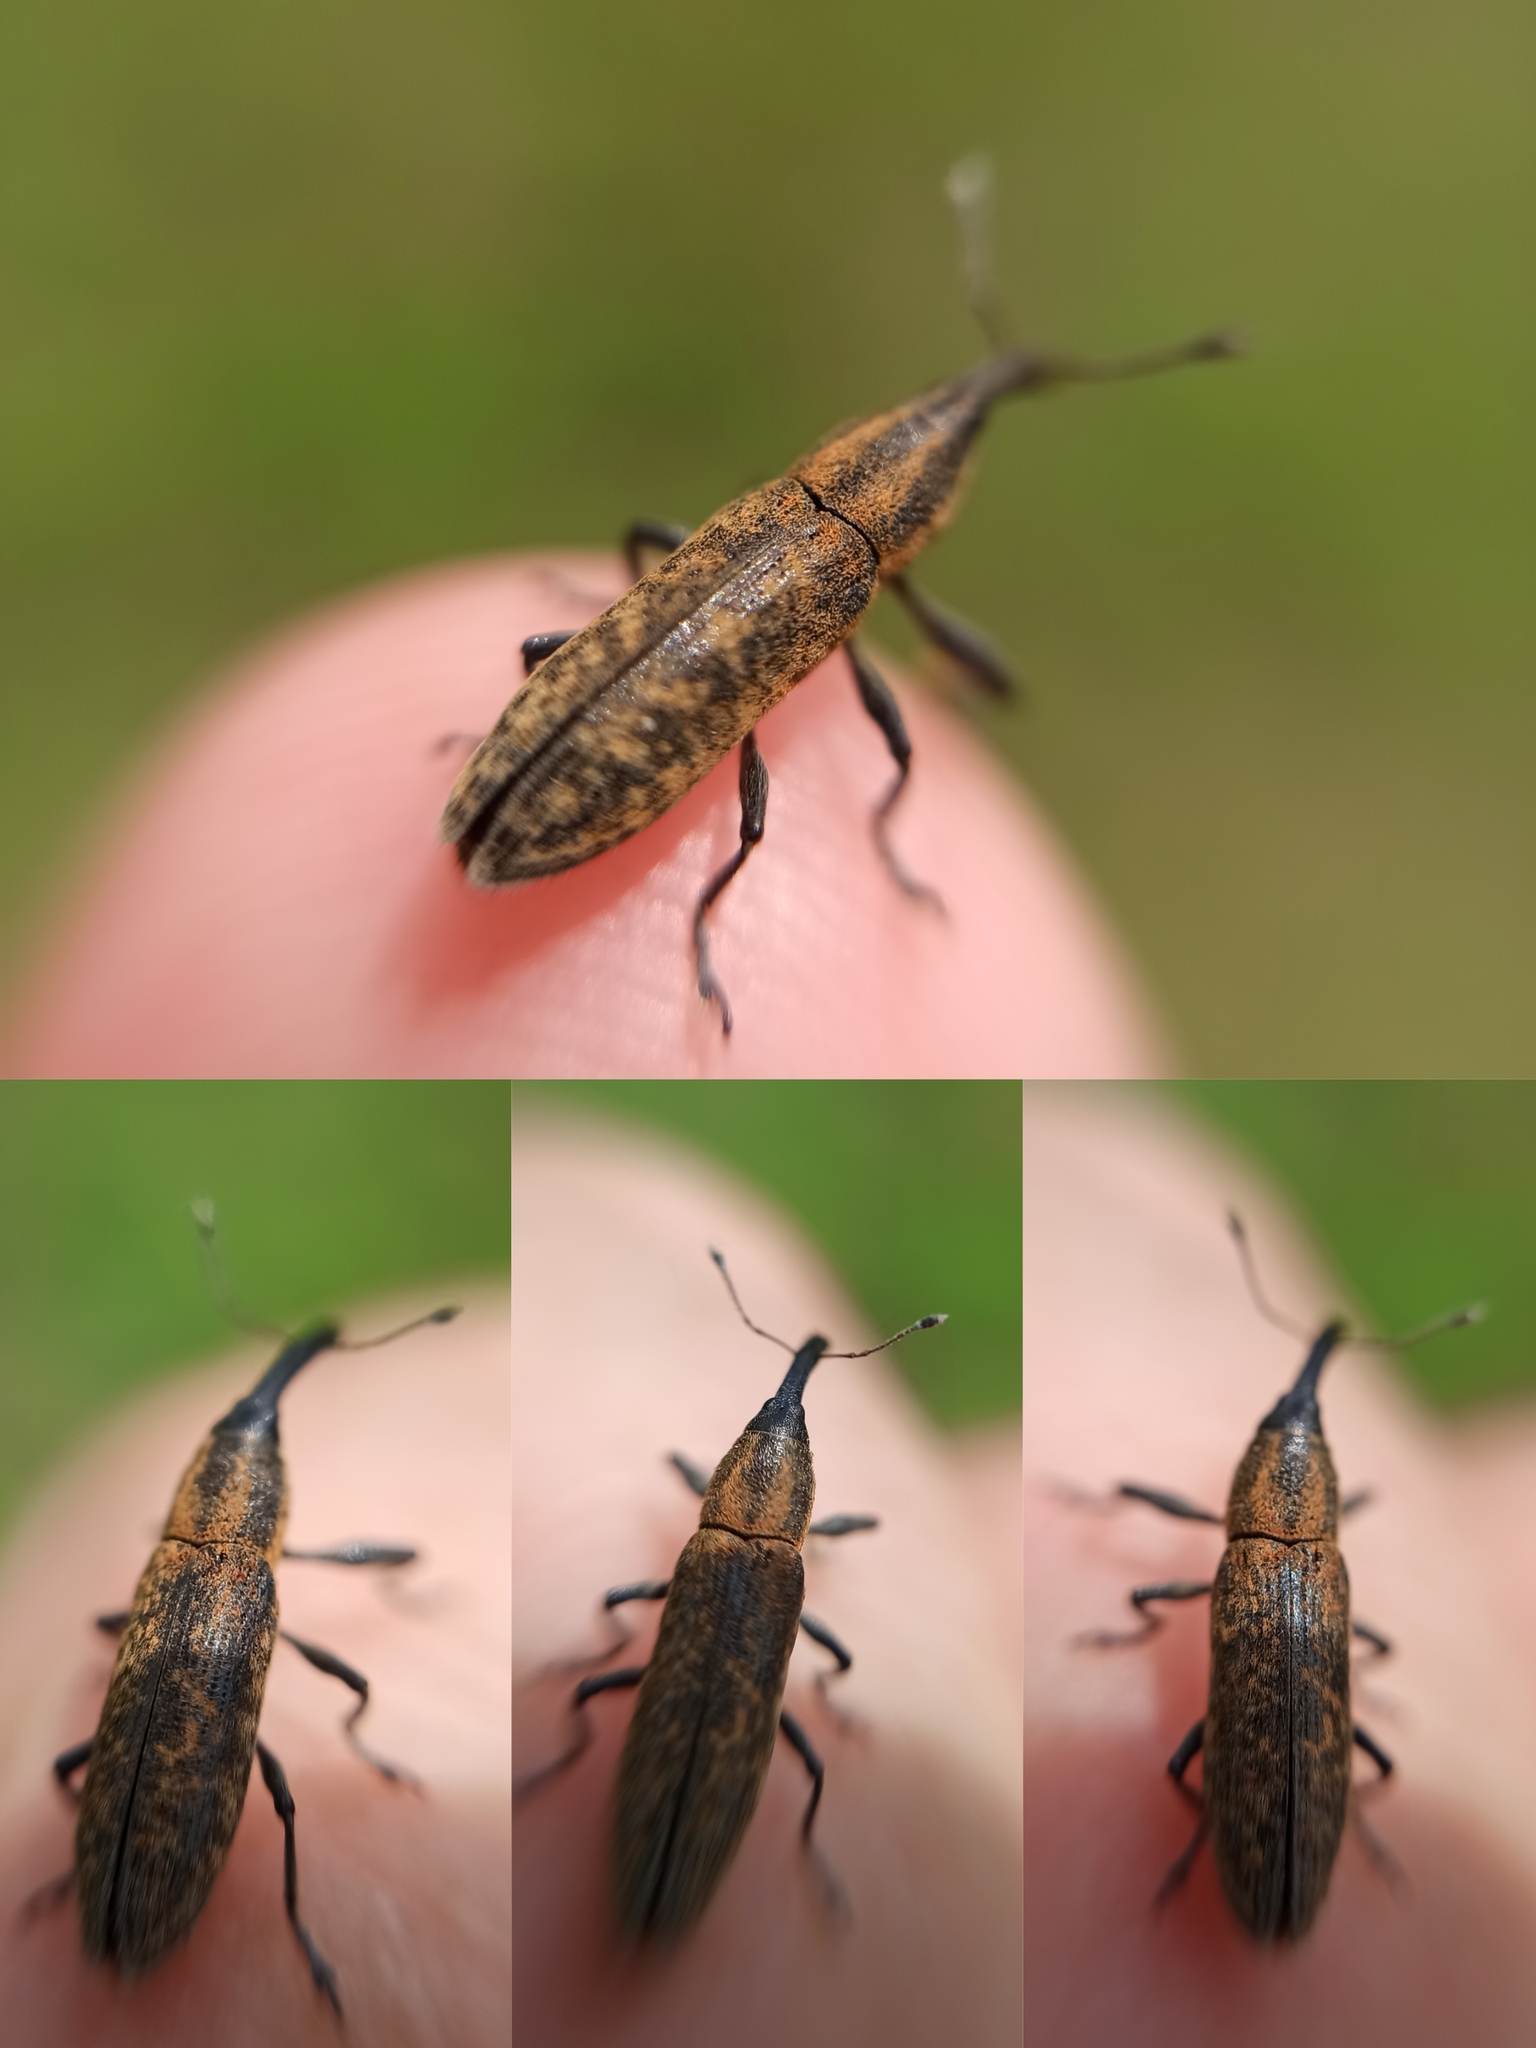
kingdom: Animalia
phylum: Arthropoda
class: Insecta
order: Coleoptera
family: Curculionidae
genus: Lixus
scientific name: Lixus fasciculatus
